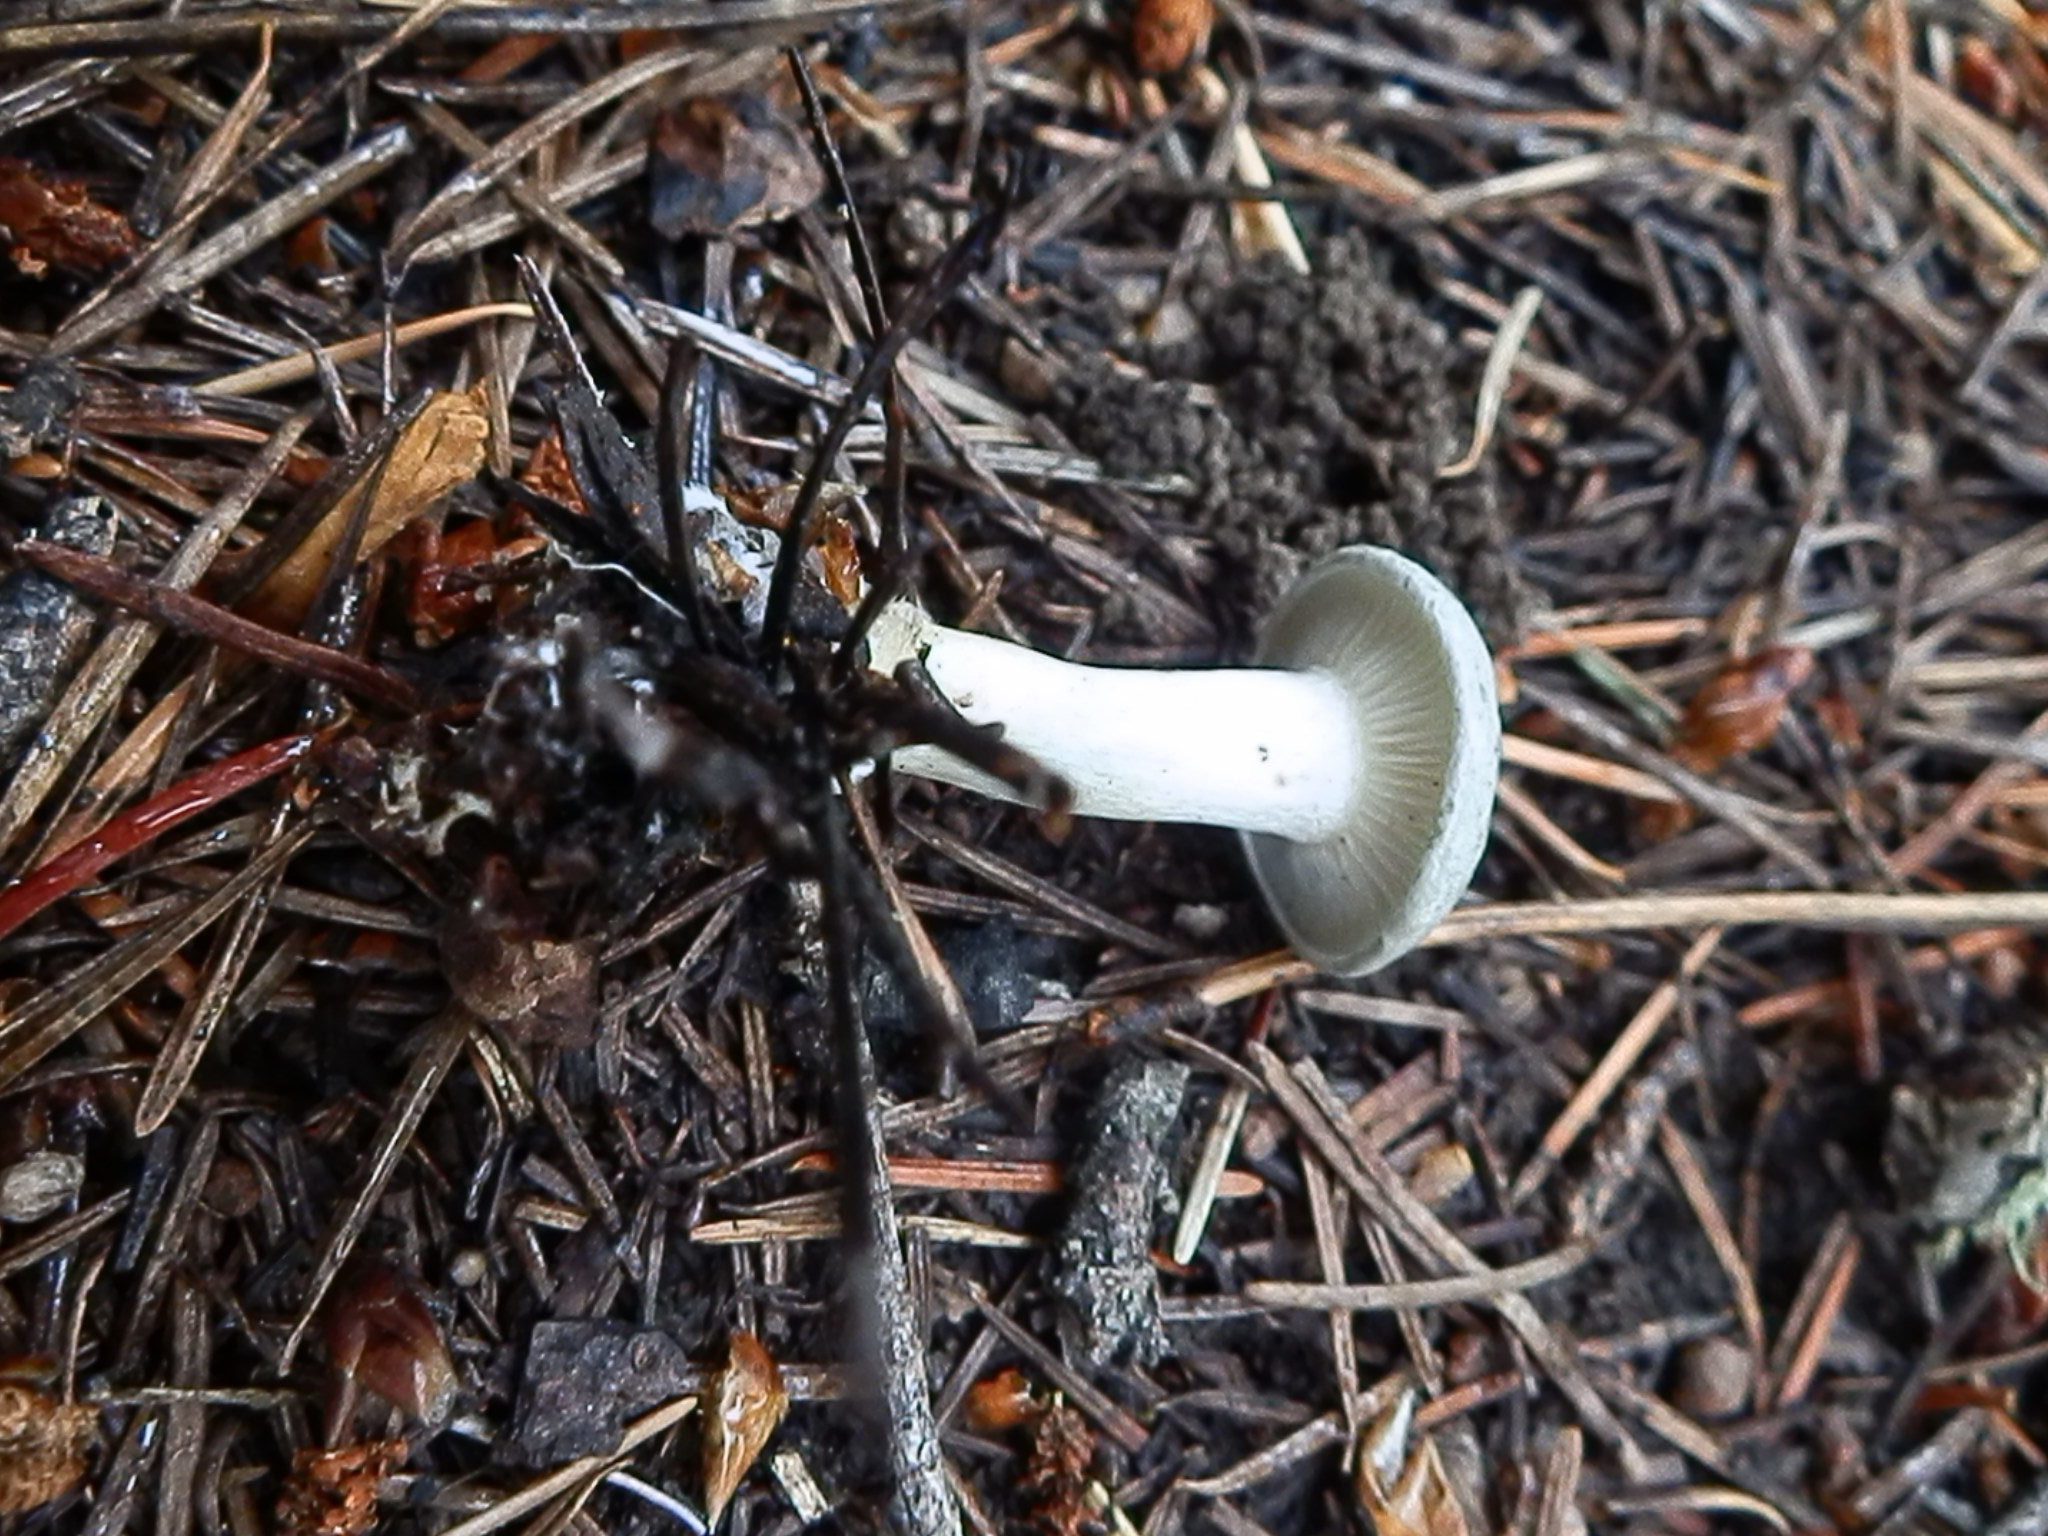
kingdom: Fungi
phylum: Basidiomycota
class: Agaricomycetes
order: Agaricales
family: Tricholomataceae
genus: Collybia
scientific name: Collybia
